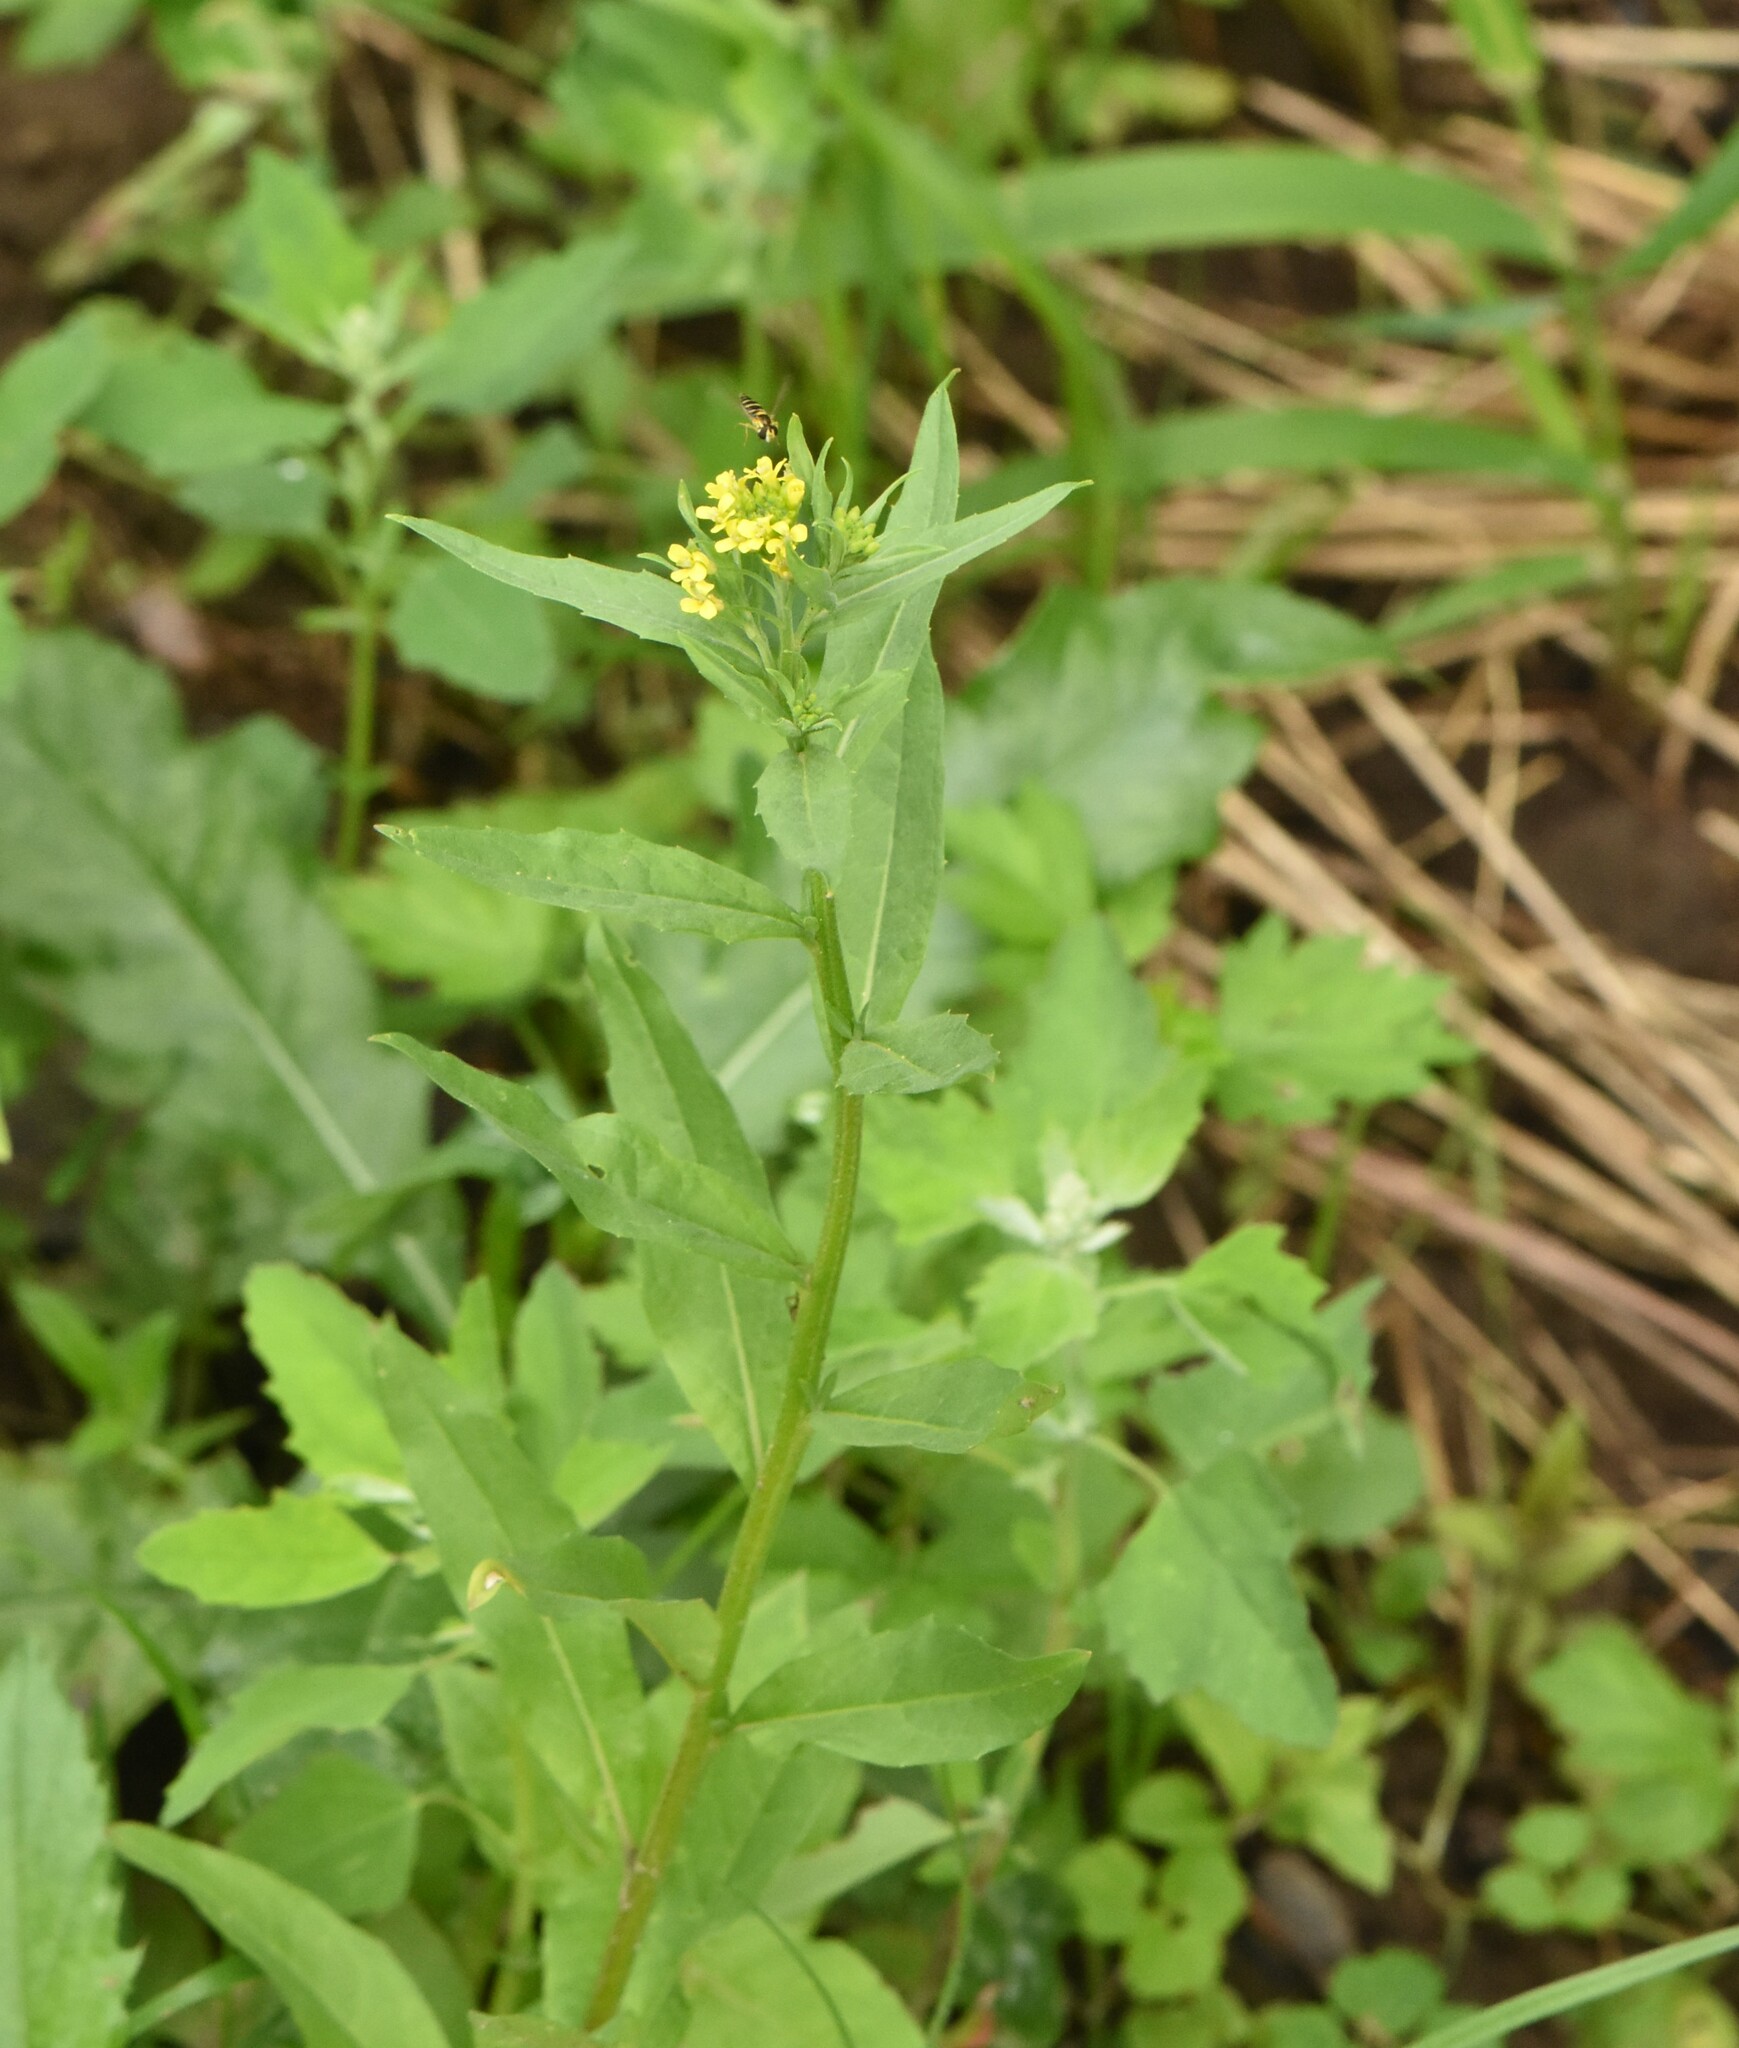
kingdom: Plantae
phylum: Tracheophyta
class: Magnoliopsida
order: Brassicales
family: Brassicaceae
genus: Erysimum
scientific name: Erysimum cheiranthoides
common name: Treacle mustard
